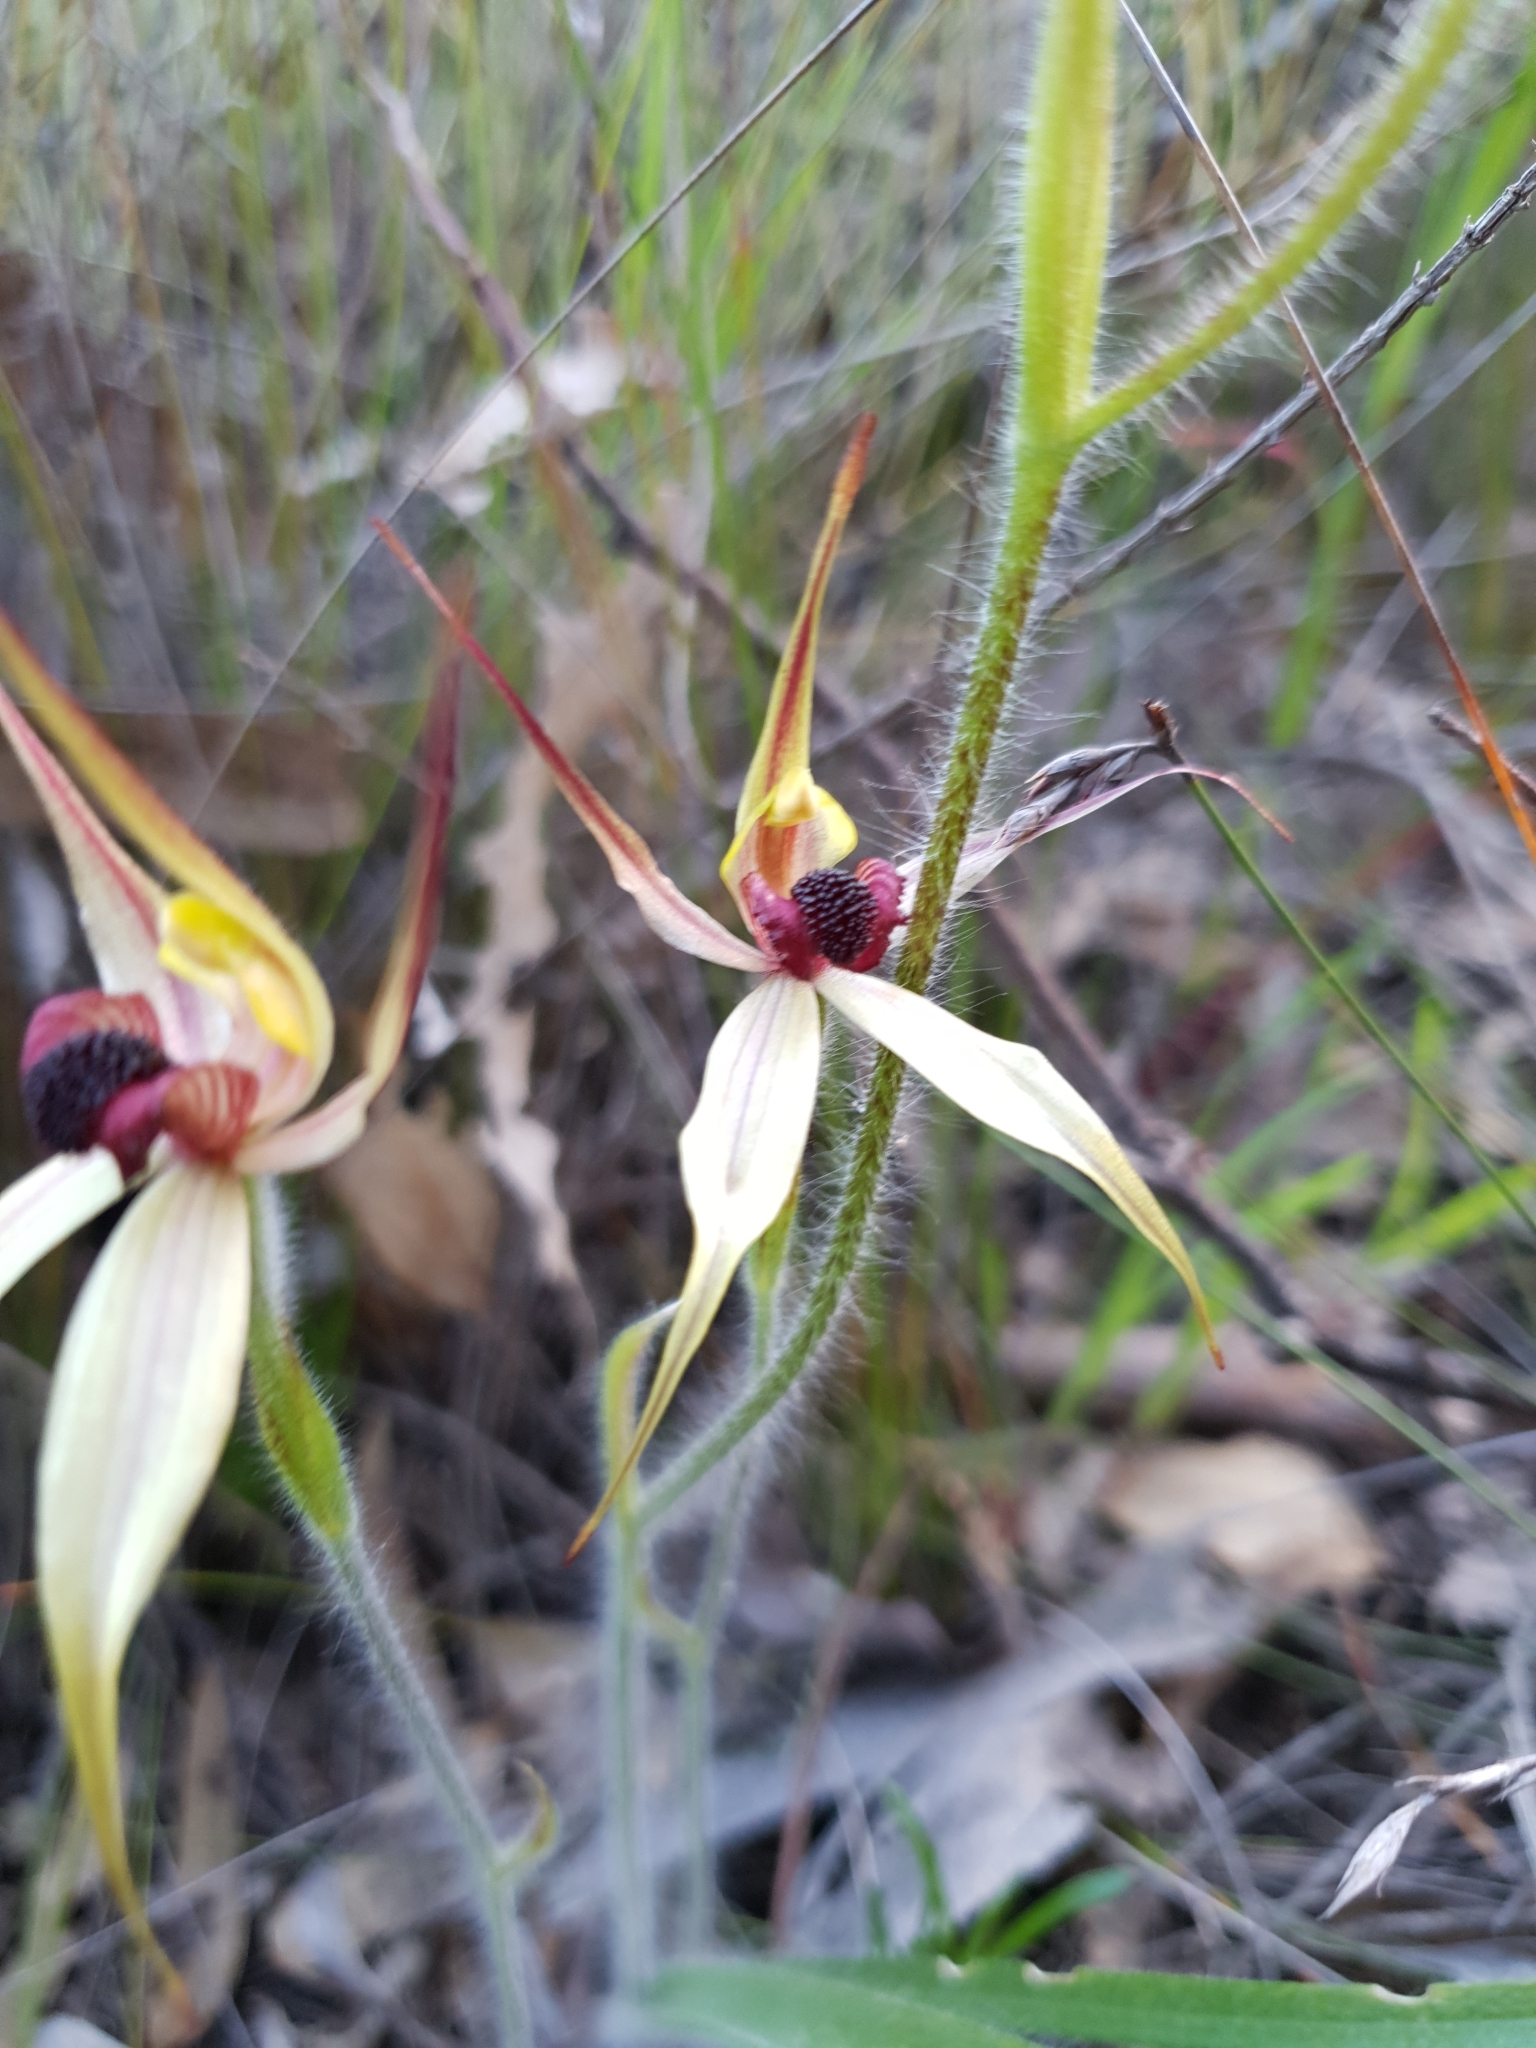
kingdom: Plantae
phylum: Tracheophyta
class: Liliopsida
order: Asparagales
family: Orchidaceae
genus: Caladenia
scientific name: Caladenia macrostylis
